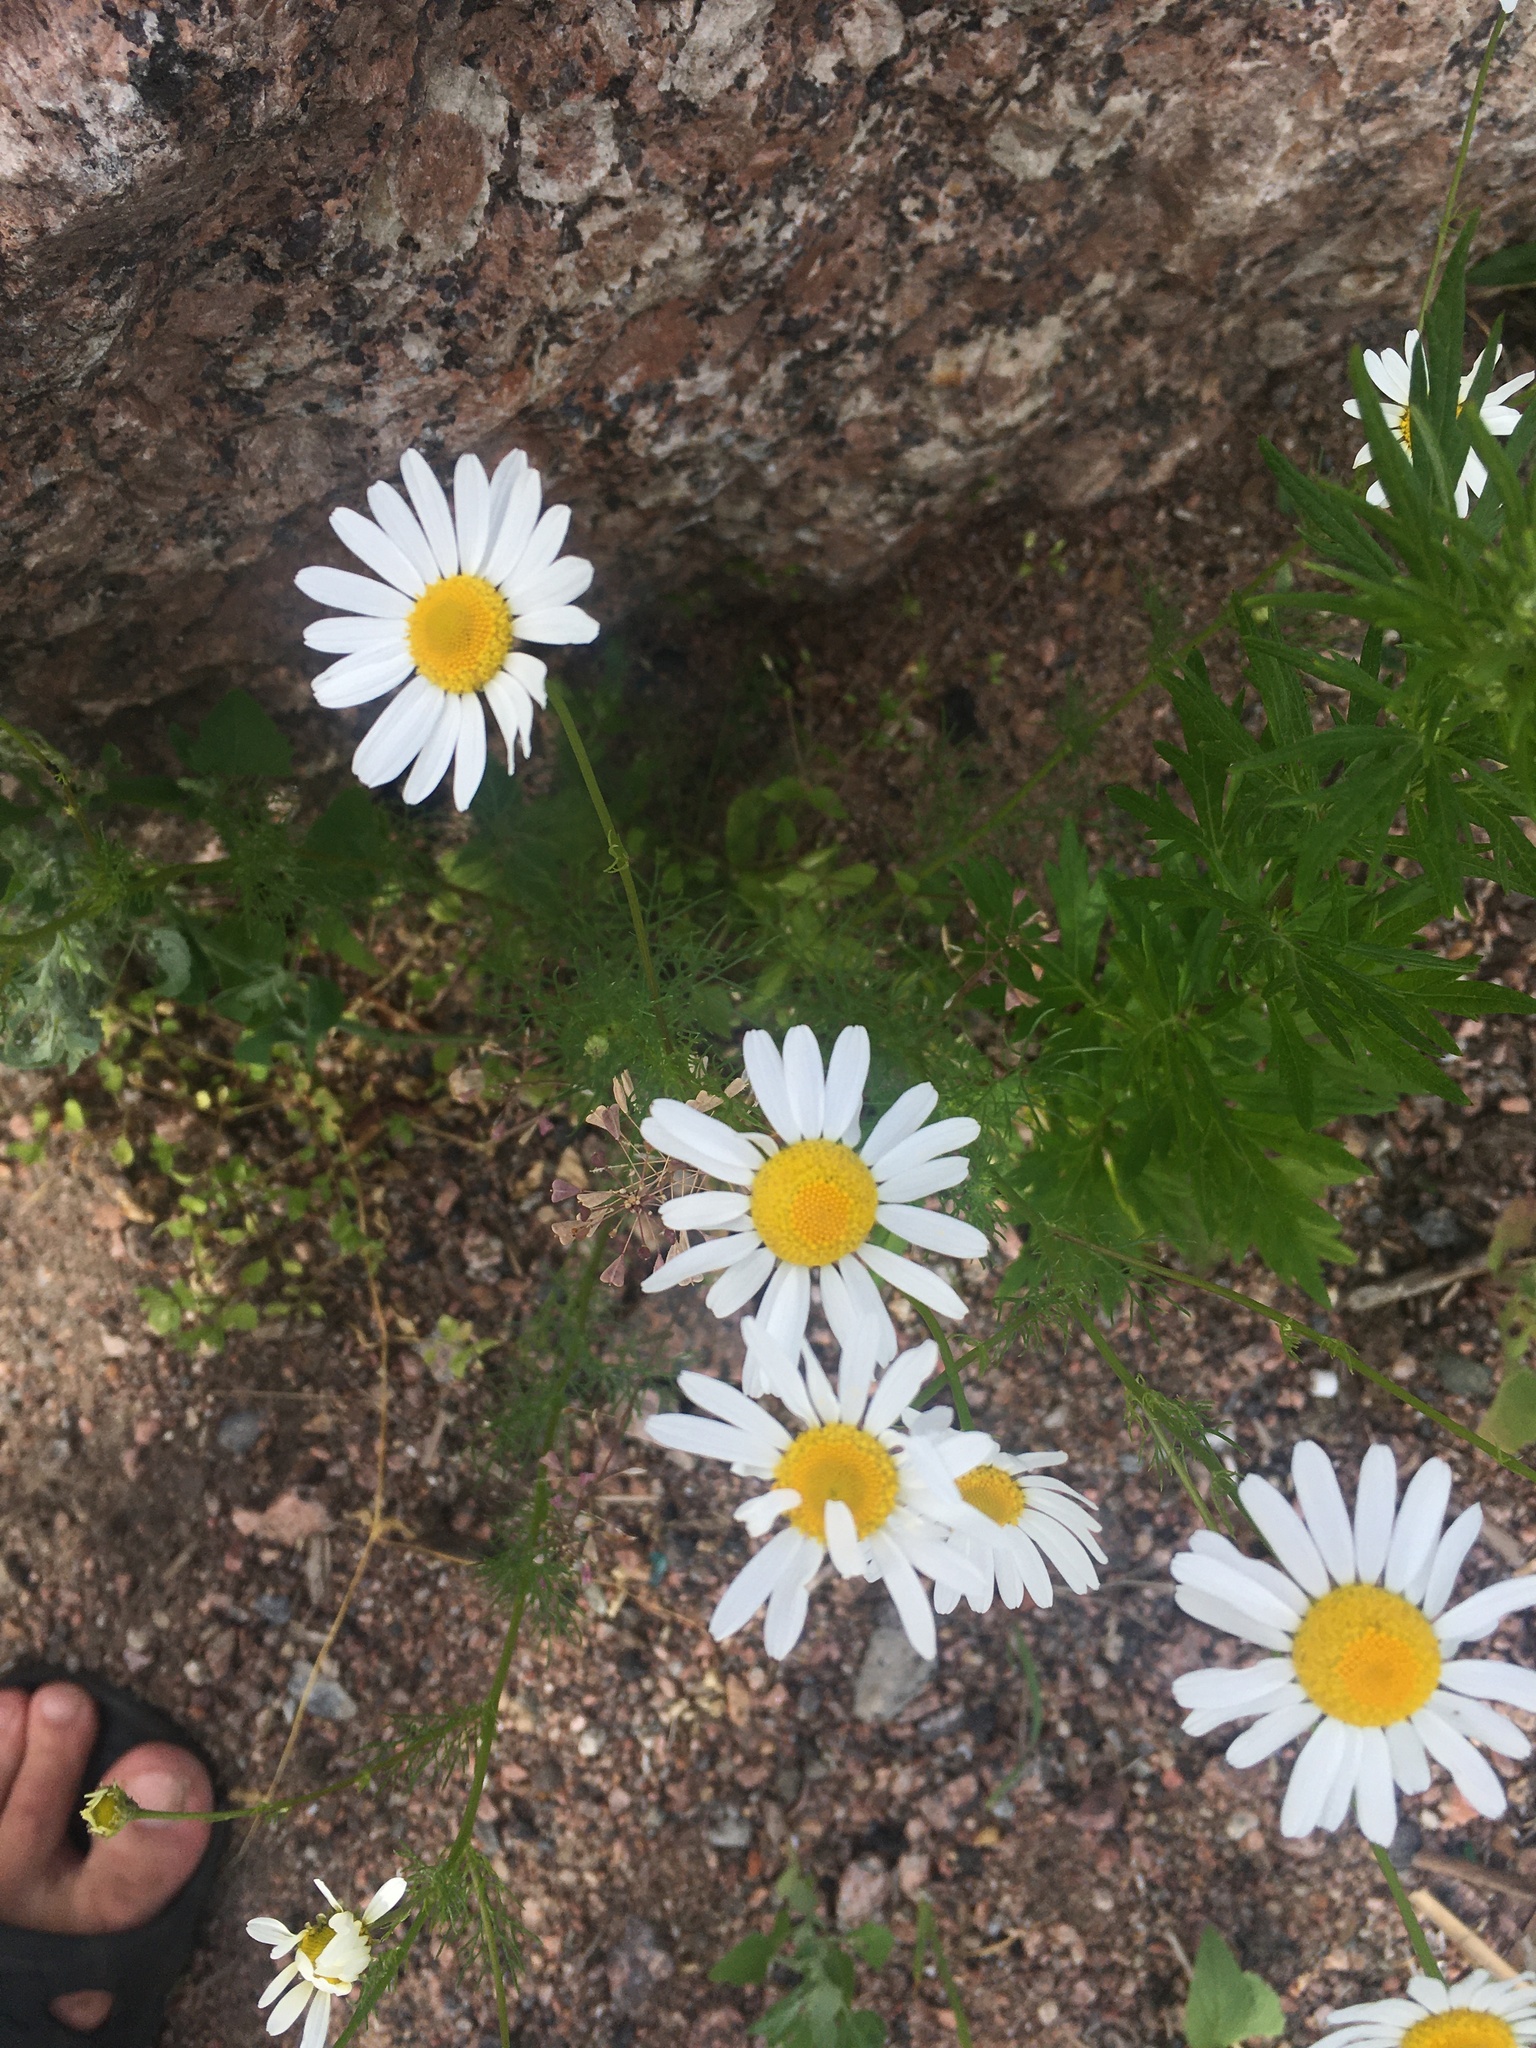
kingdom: Plantae
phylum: Tracheophyta
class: Magnoliopsida
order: Asterales
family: Asteraceae
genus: Tripleurospermum
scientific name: Tripleurospermum inodorum
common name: Scentless mayweed
